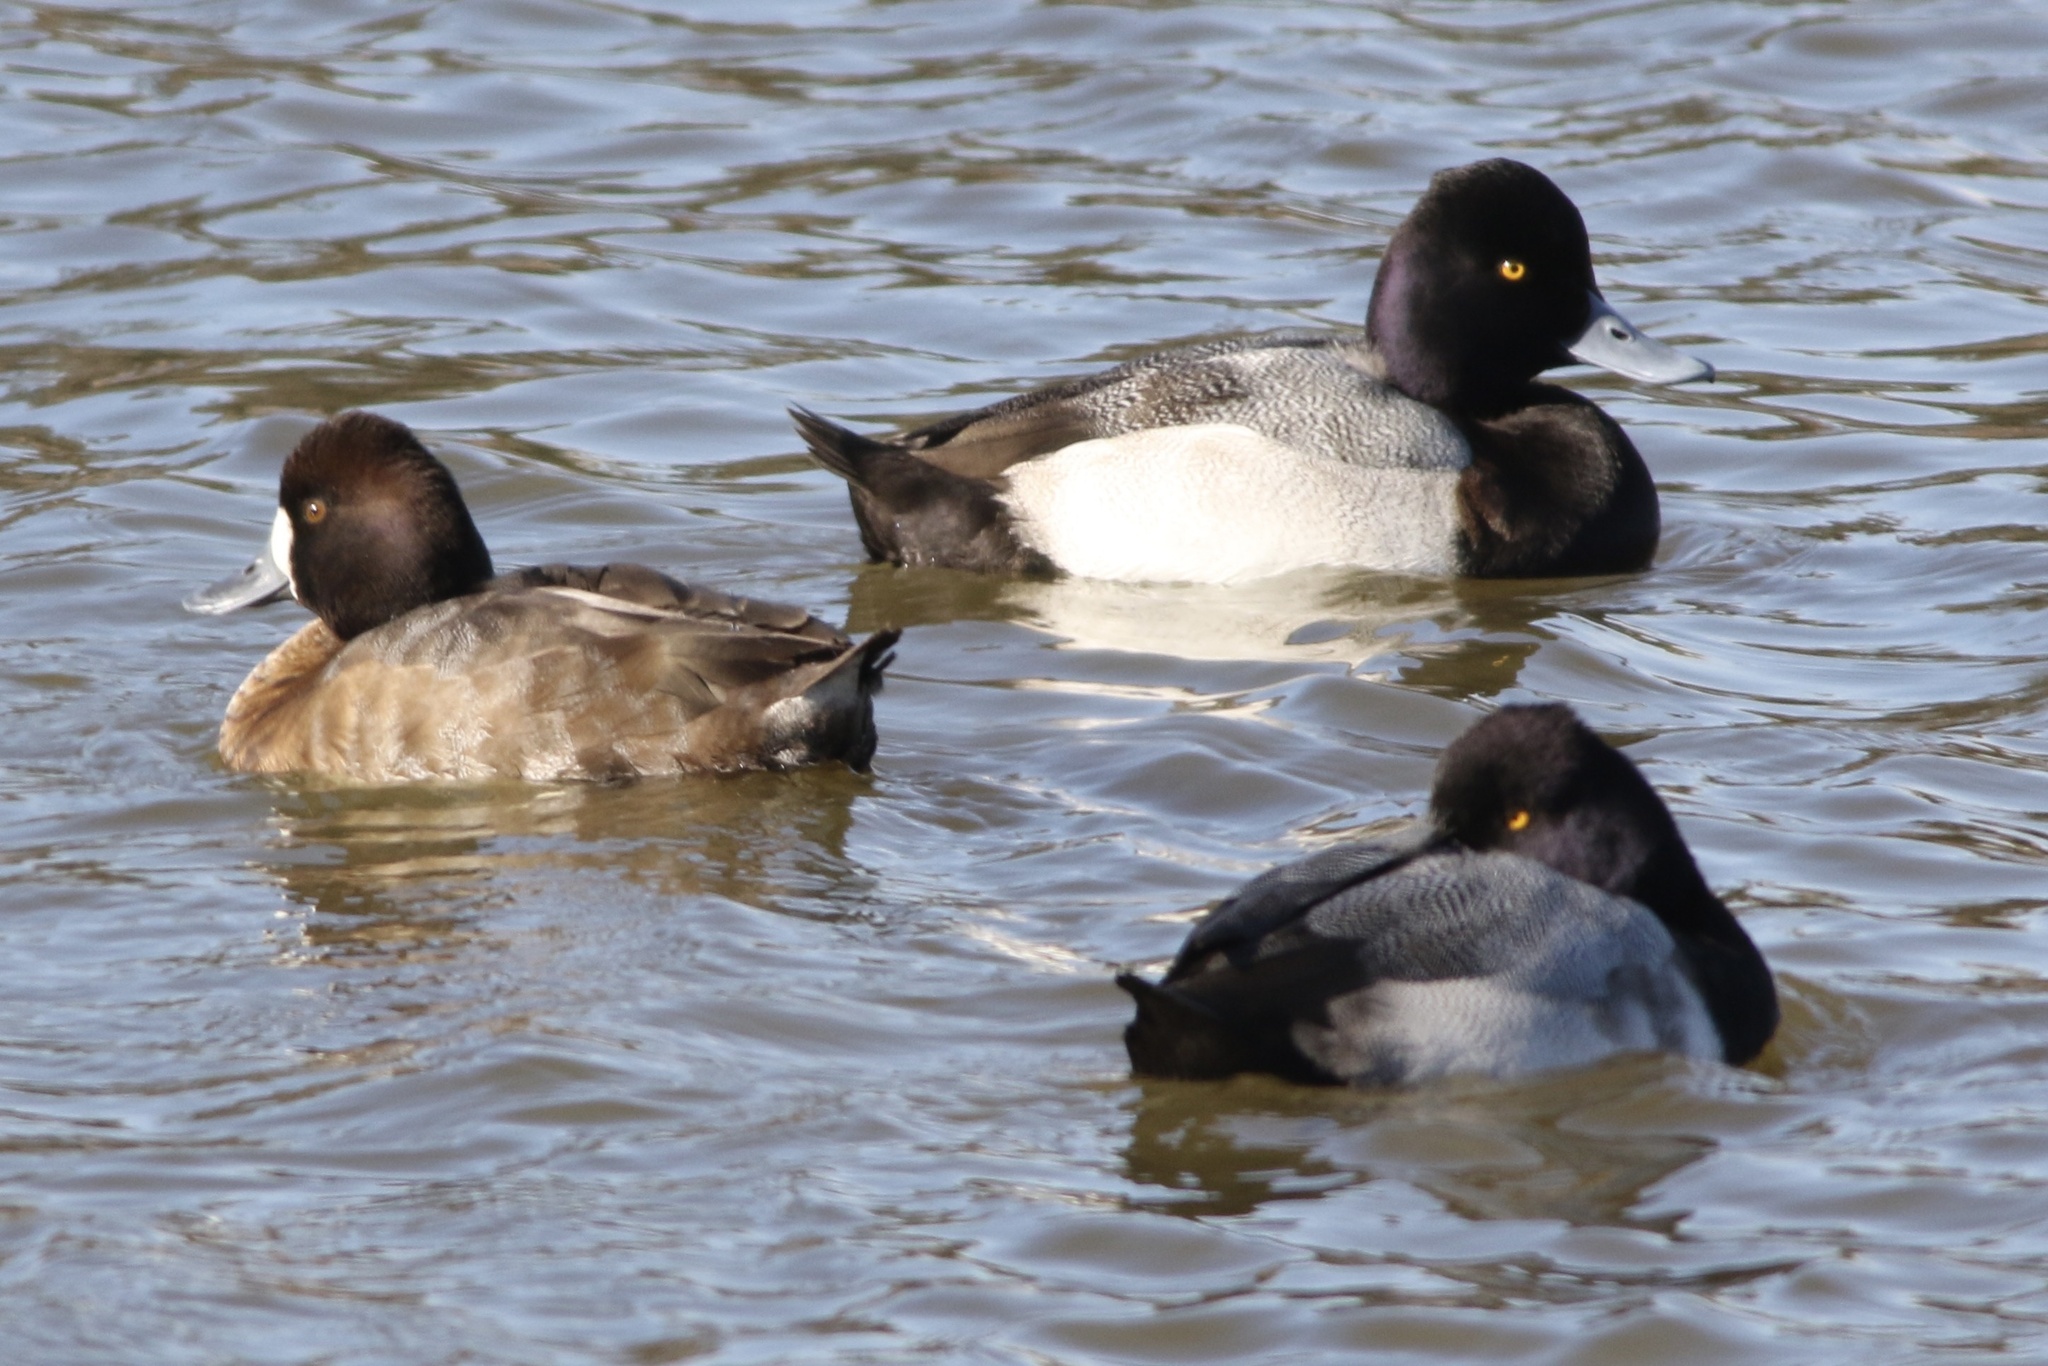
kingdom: Animalia
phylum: Chordata
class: Aves
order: Anseriformes
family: Anatidae
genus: Aythya
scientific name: Aythya affinis
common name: Lesser scaup
